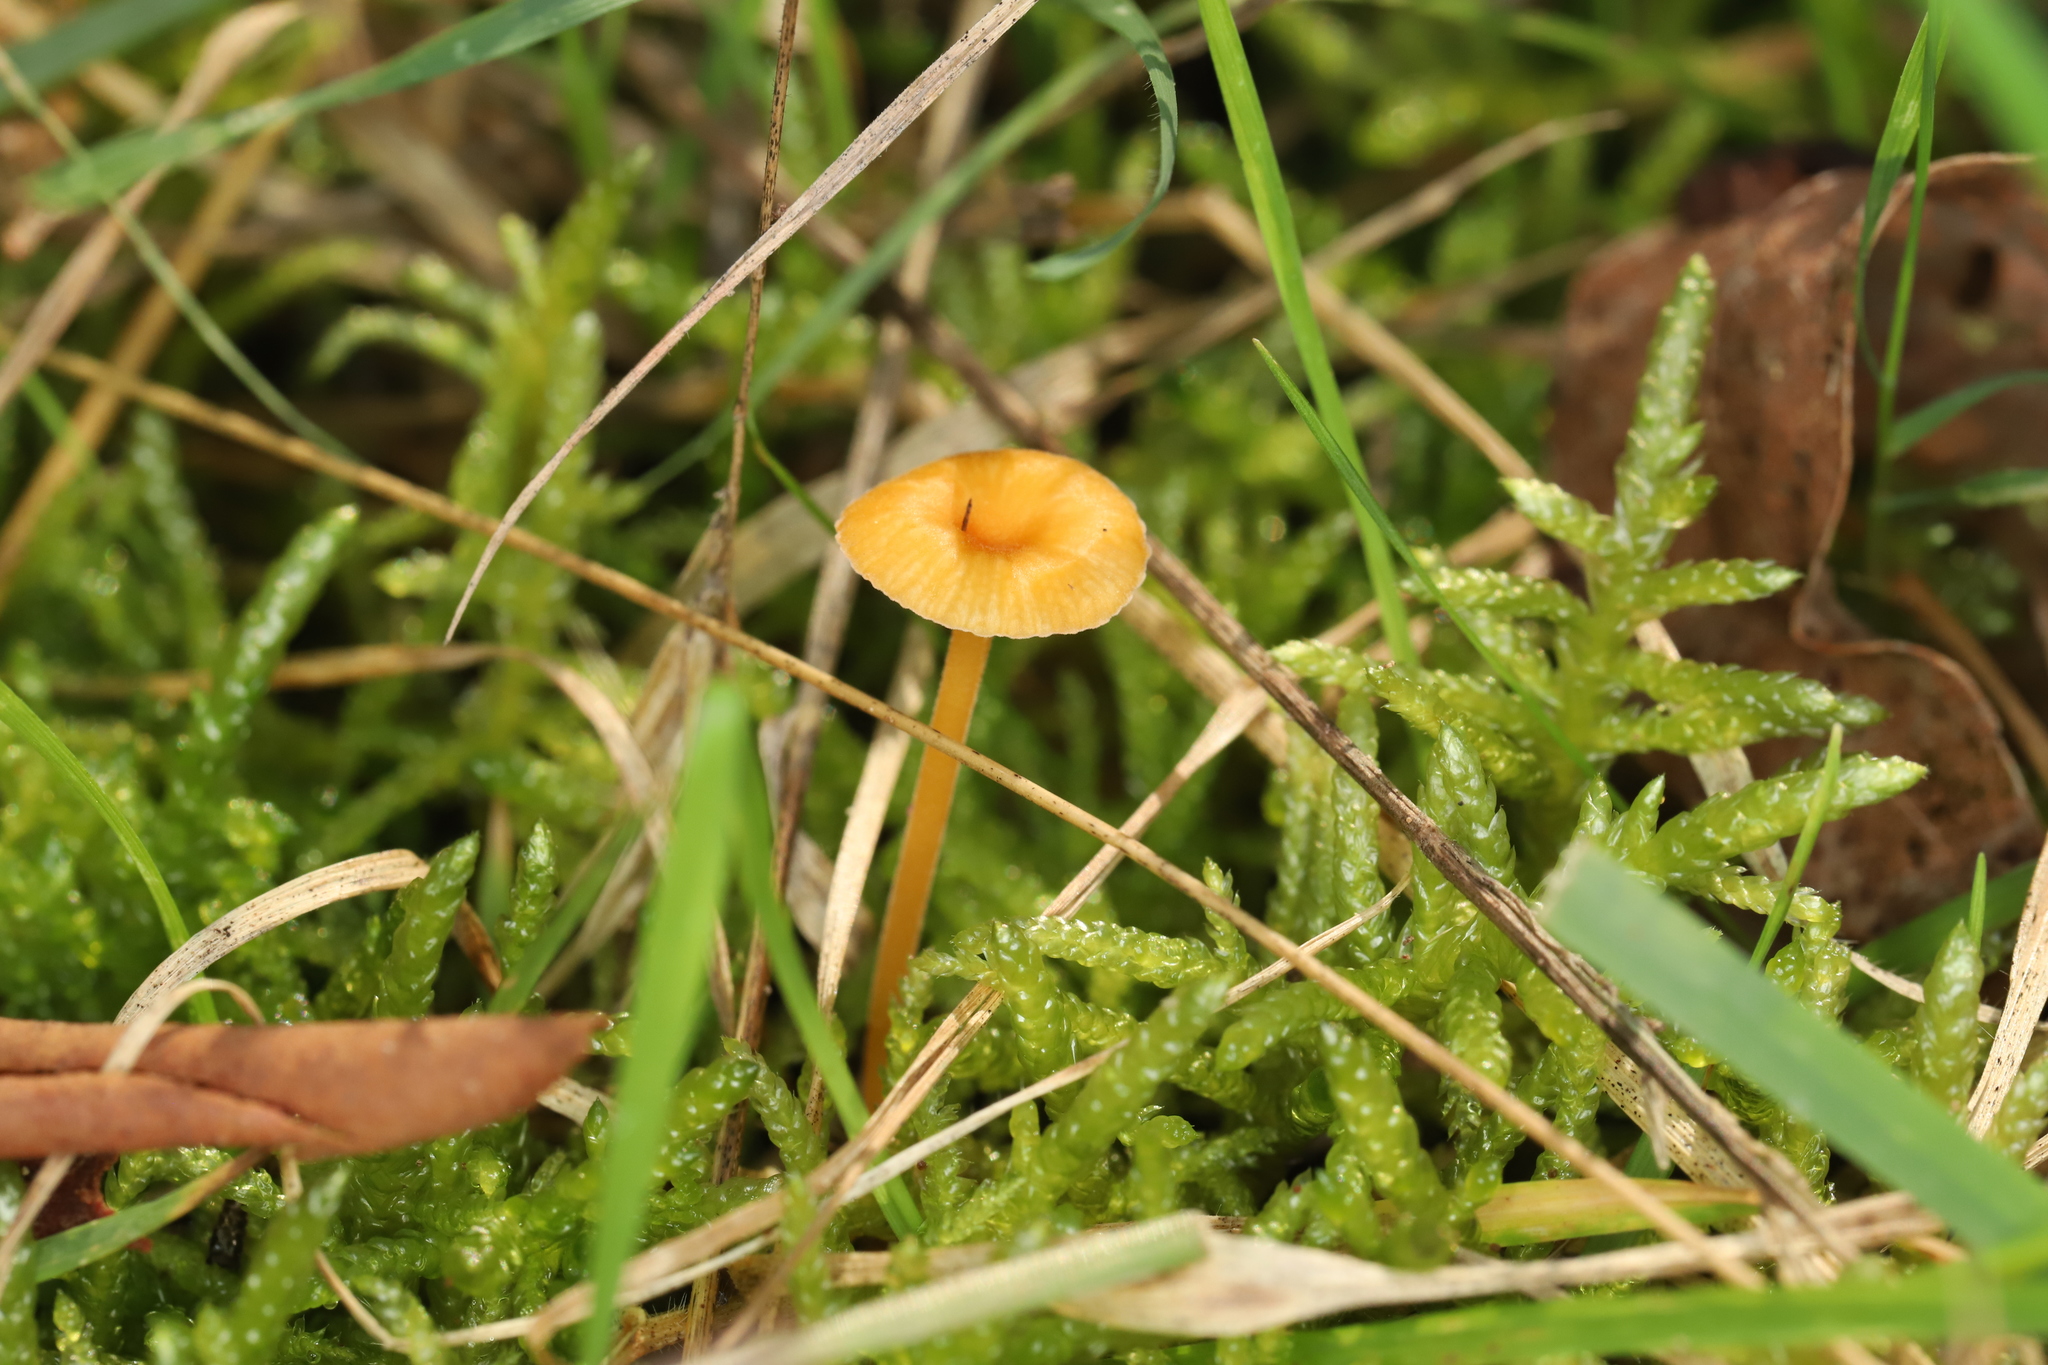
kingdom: Fungi
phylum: Basidiomycota
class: Agaricomycetes
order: Hymenochaetales
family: Rickenellaceae
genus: Rickenella
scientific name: Rickenella fibula
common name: Orange mosscap
